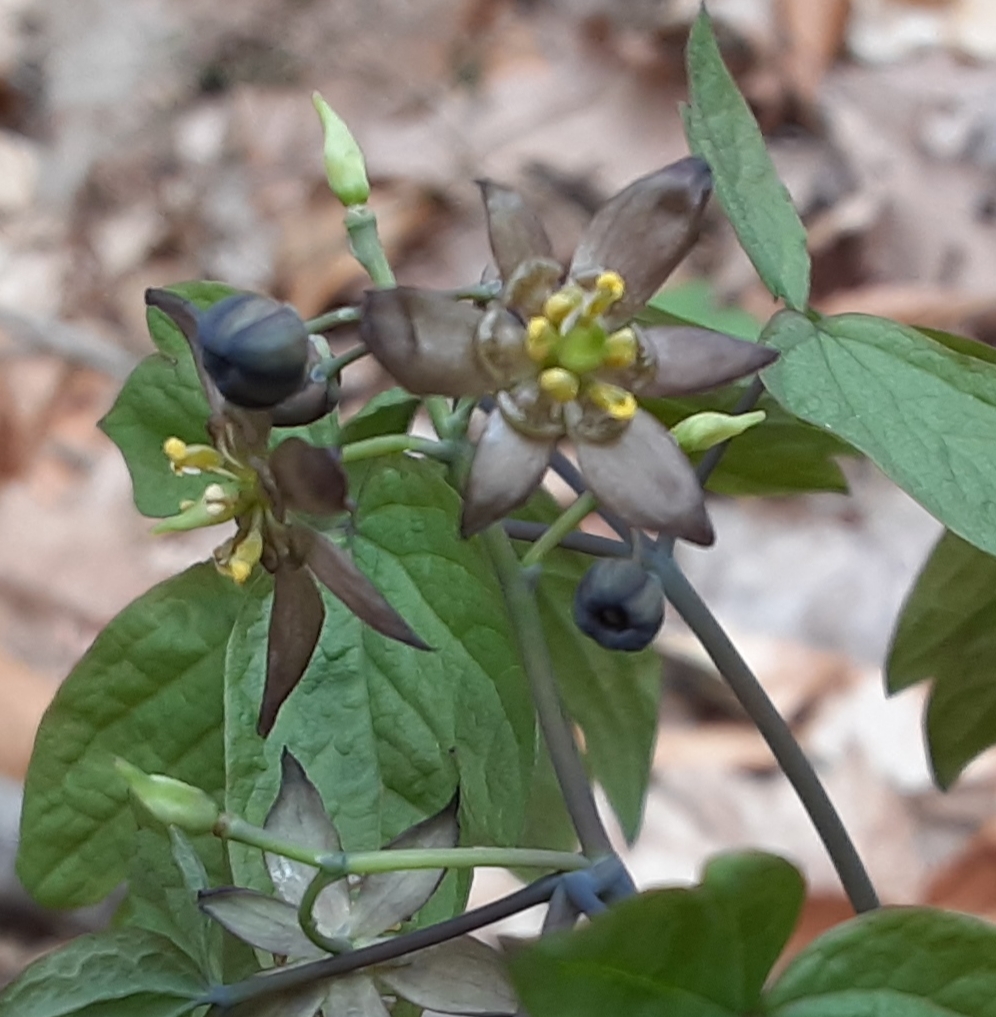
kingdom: Plantae
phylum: Tracheophyta
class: Magnoliopsida
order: Ranunculales
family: Berberidaceae
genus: Caulophyllum
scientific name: Caulophyllum giganteum
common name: Blue cohosh
